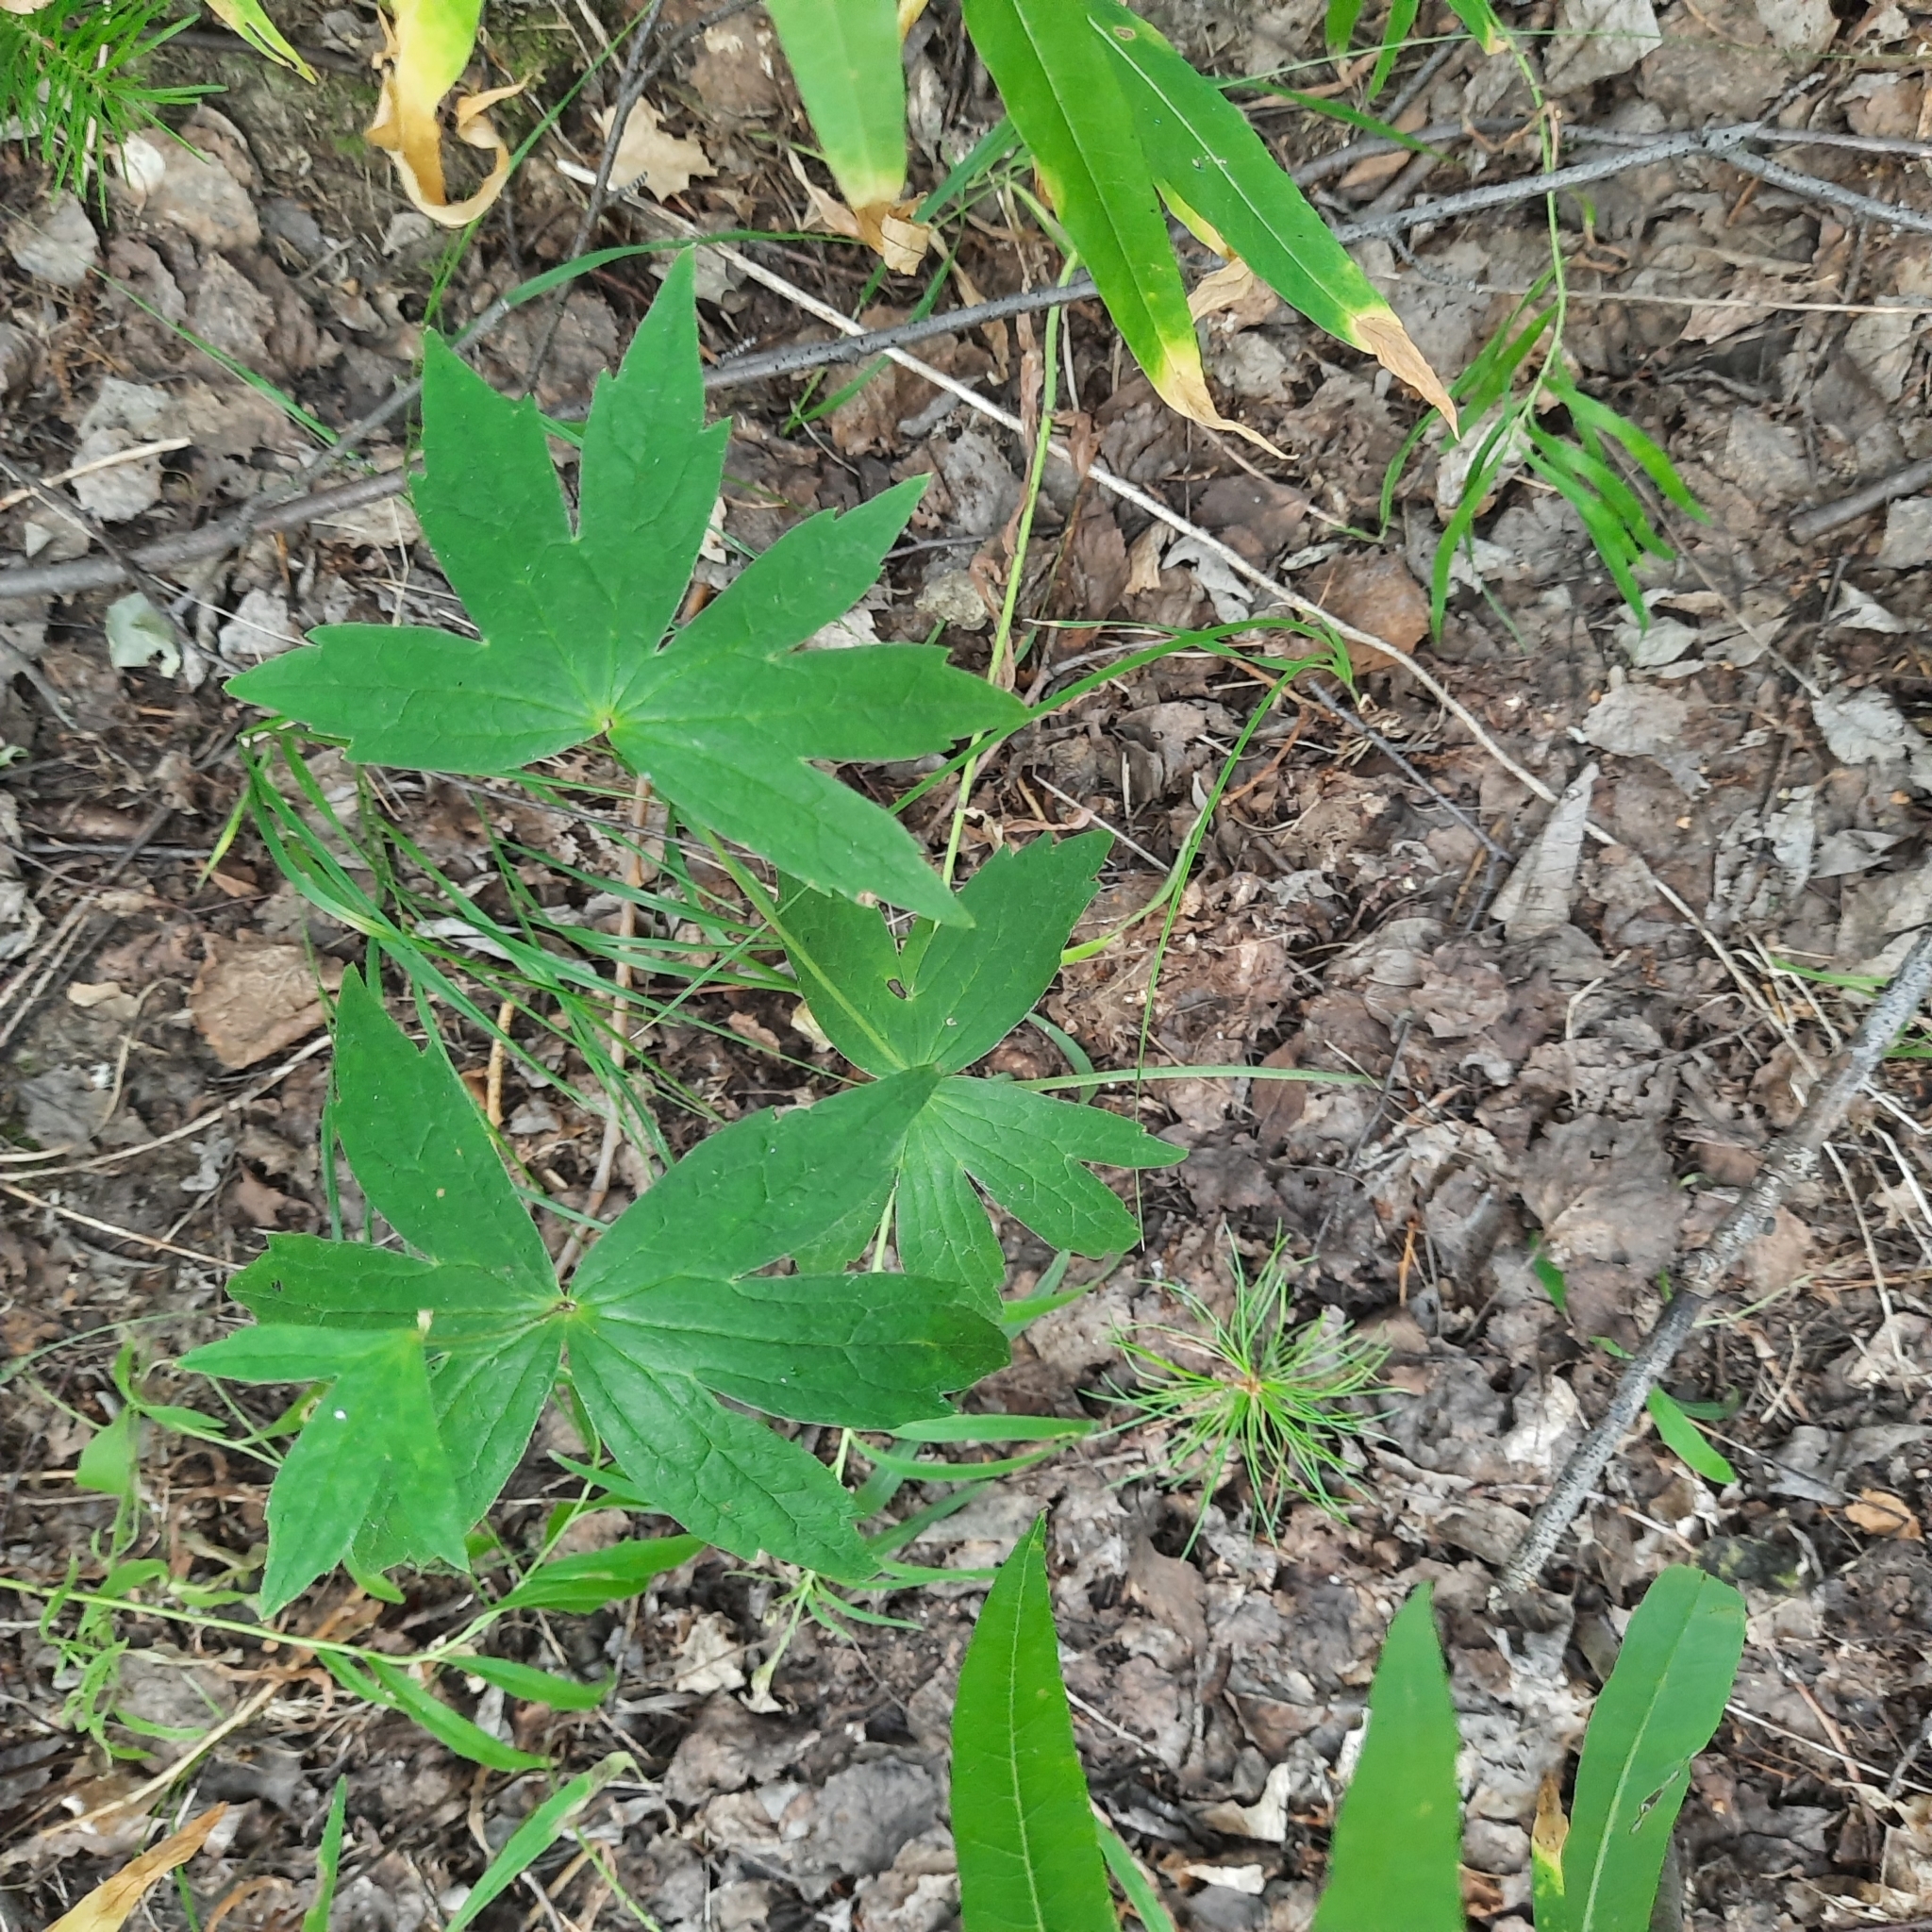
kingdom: Plantae
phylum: Tracheophyta
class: Magnoliopsida
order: Ranunculales
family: Ranunculaceae
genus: Anemonastrum
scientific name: Anemonastrum dichotomum
